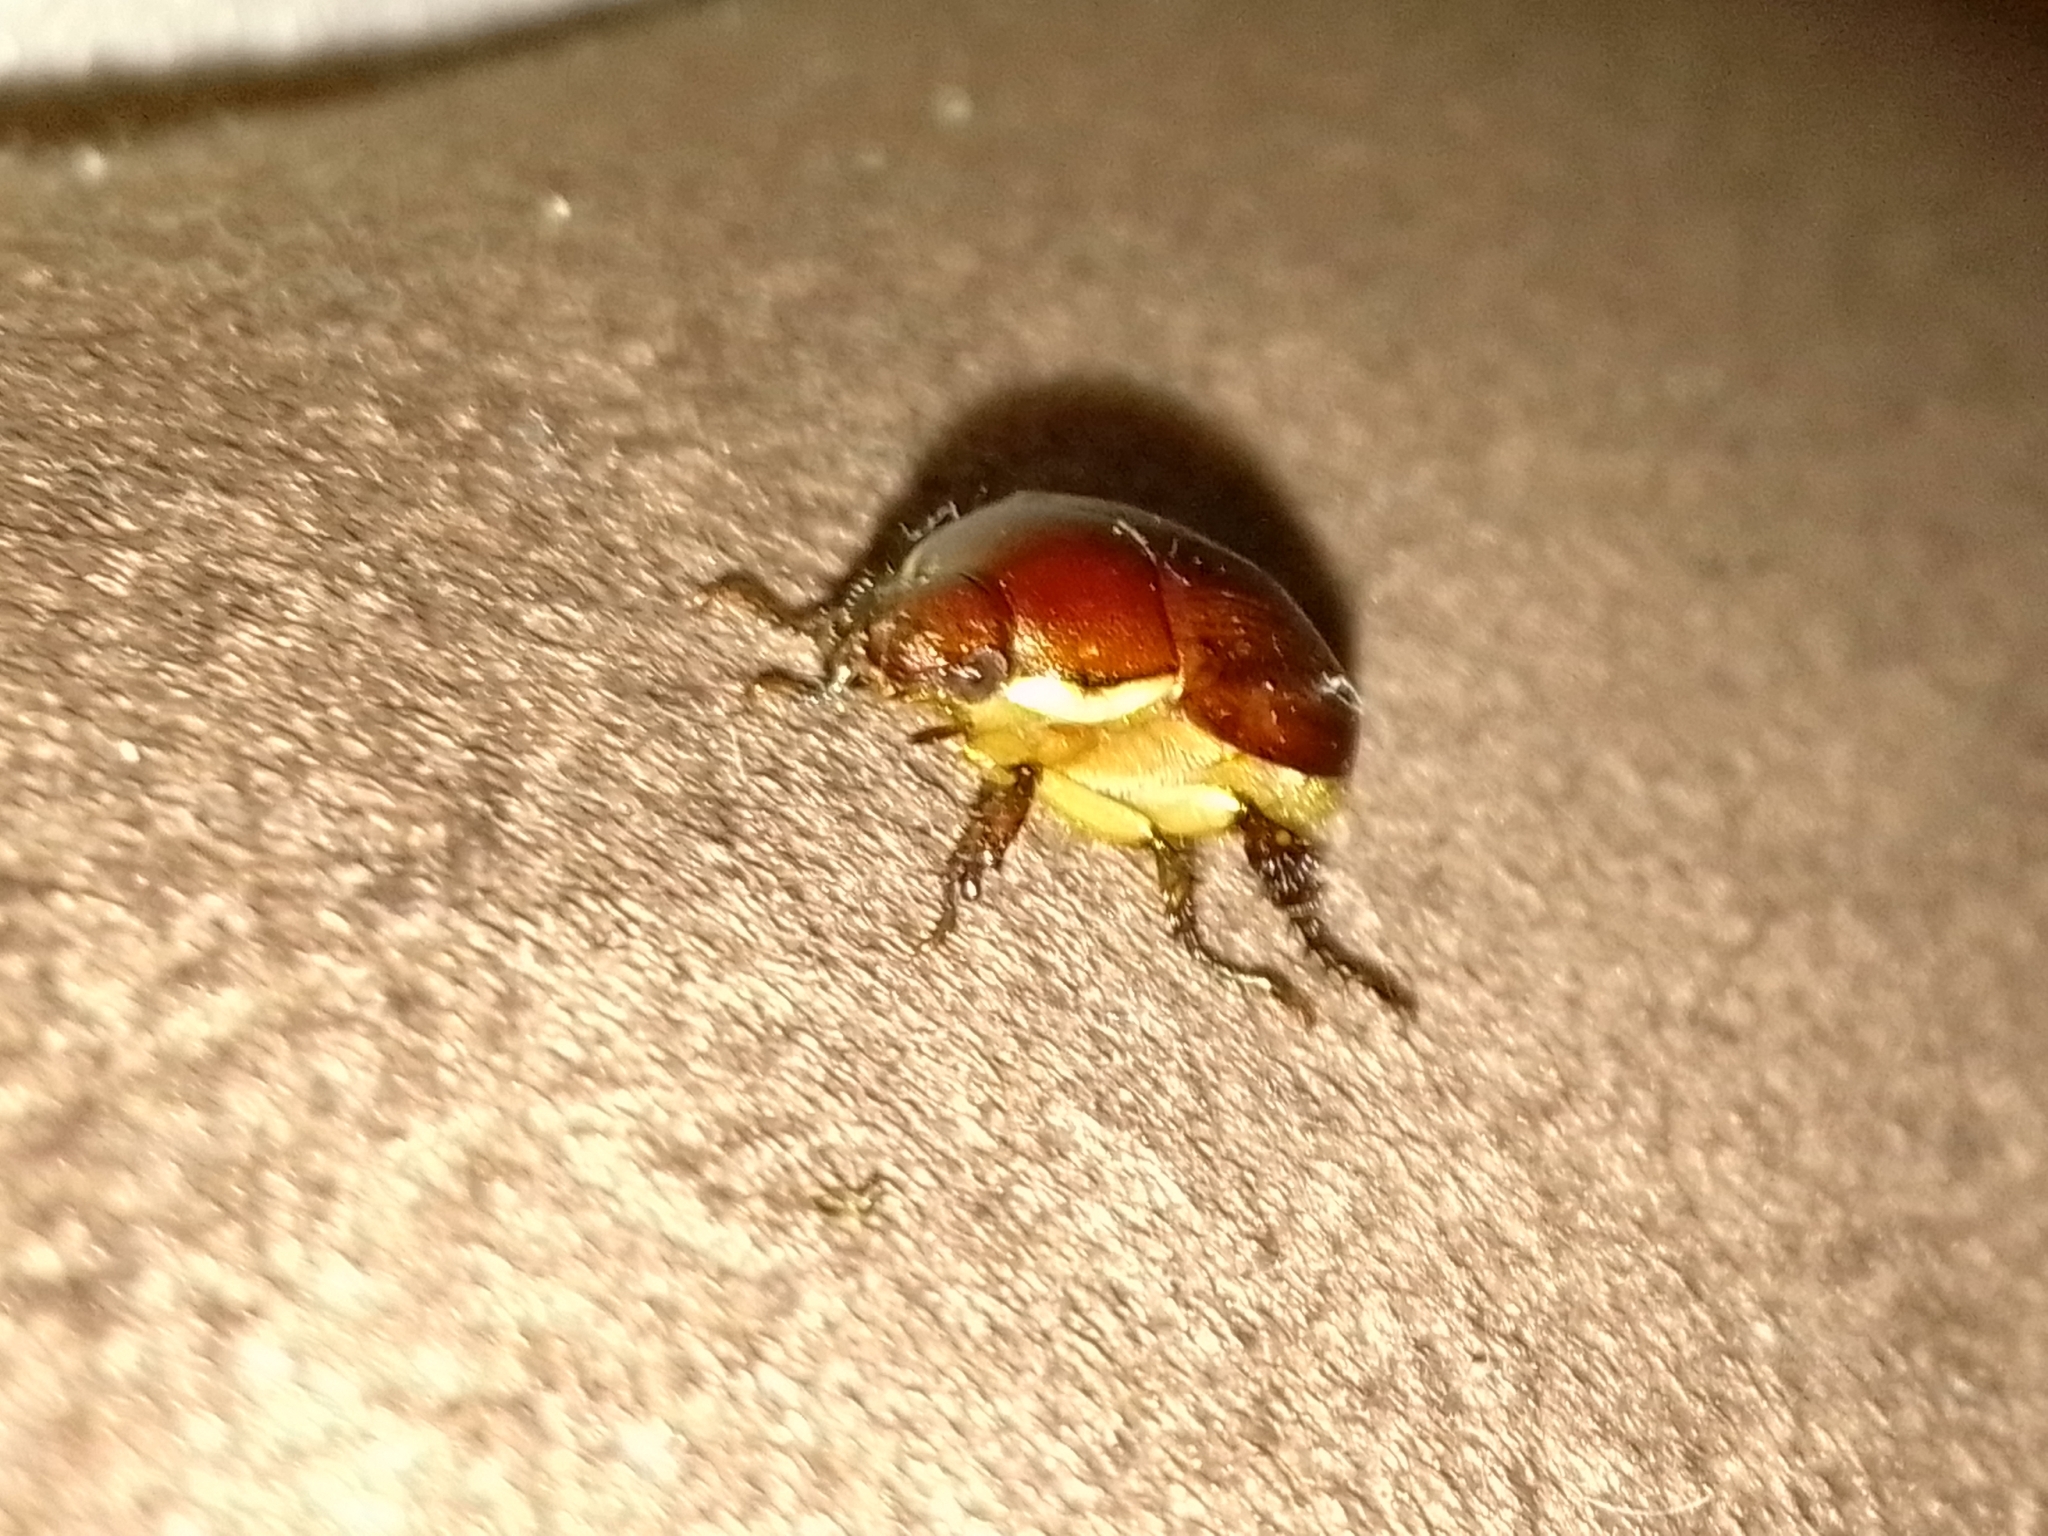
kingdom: Animalia
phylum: Arthropoda
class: Insecta
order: Coleoptera
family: Scarabaeidae
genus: Callistethus
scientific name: Callistethus
